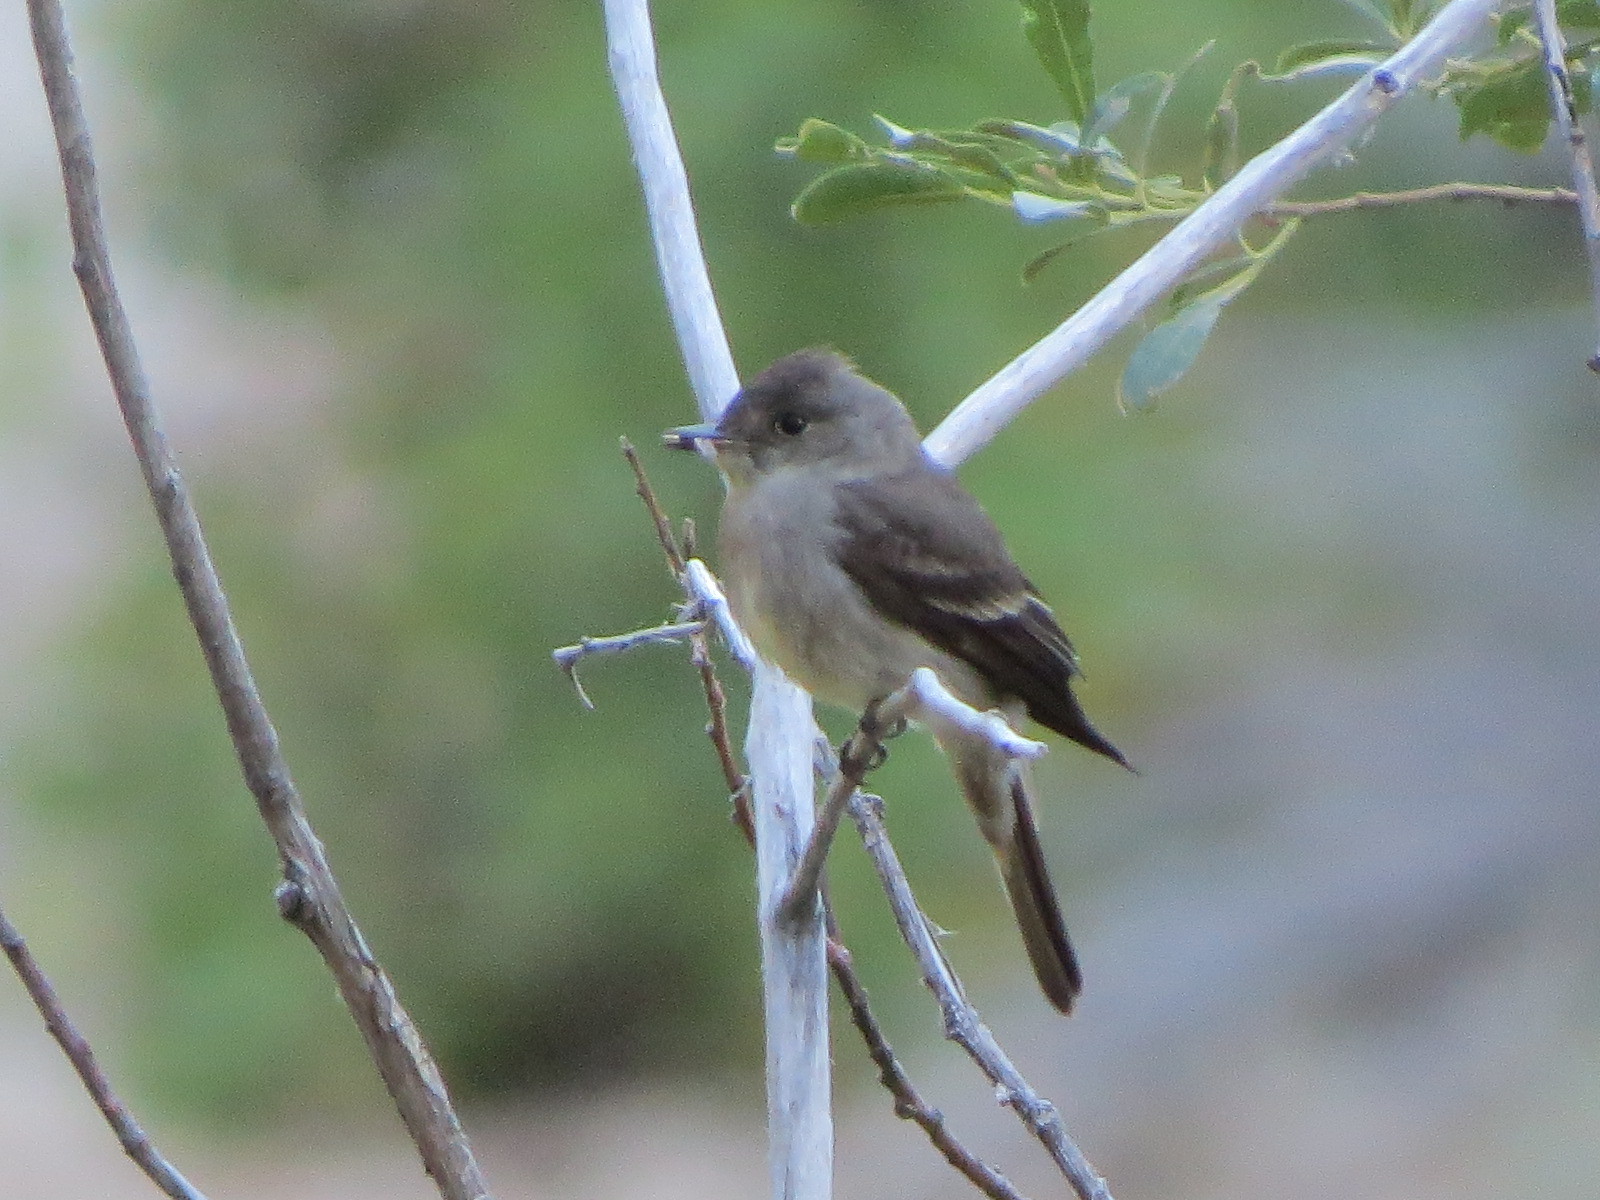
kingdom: Animalia
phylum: Chordata
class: Aves
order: Passeriformes
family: Tyrannidae
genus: Contopus
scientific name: Contopus sordidulus
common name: Western wood-pewee
